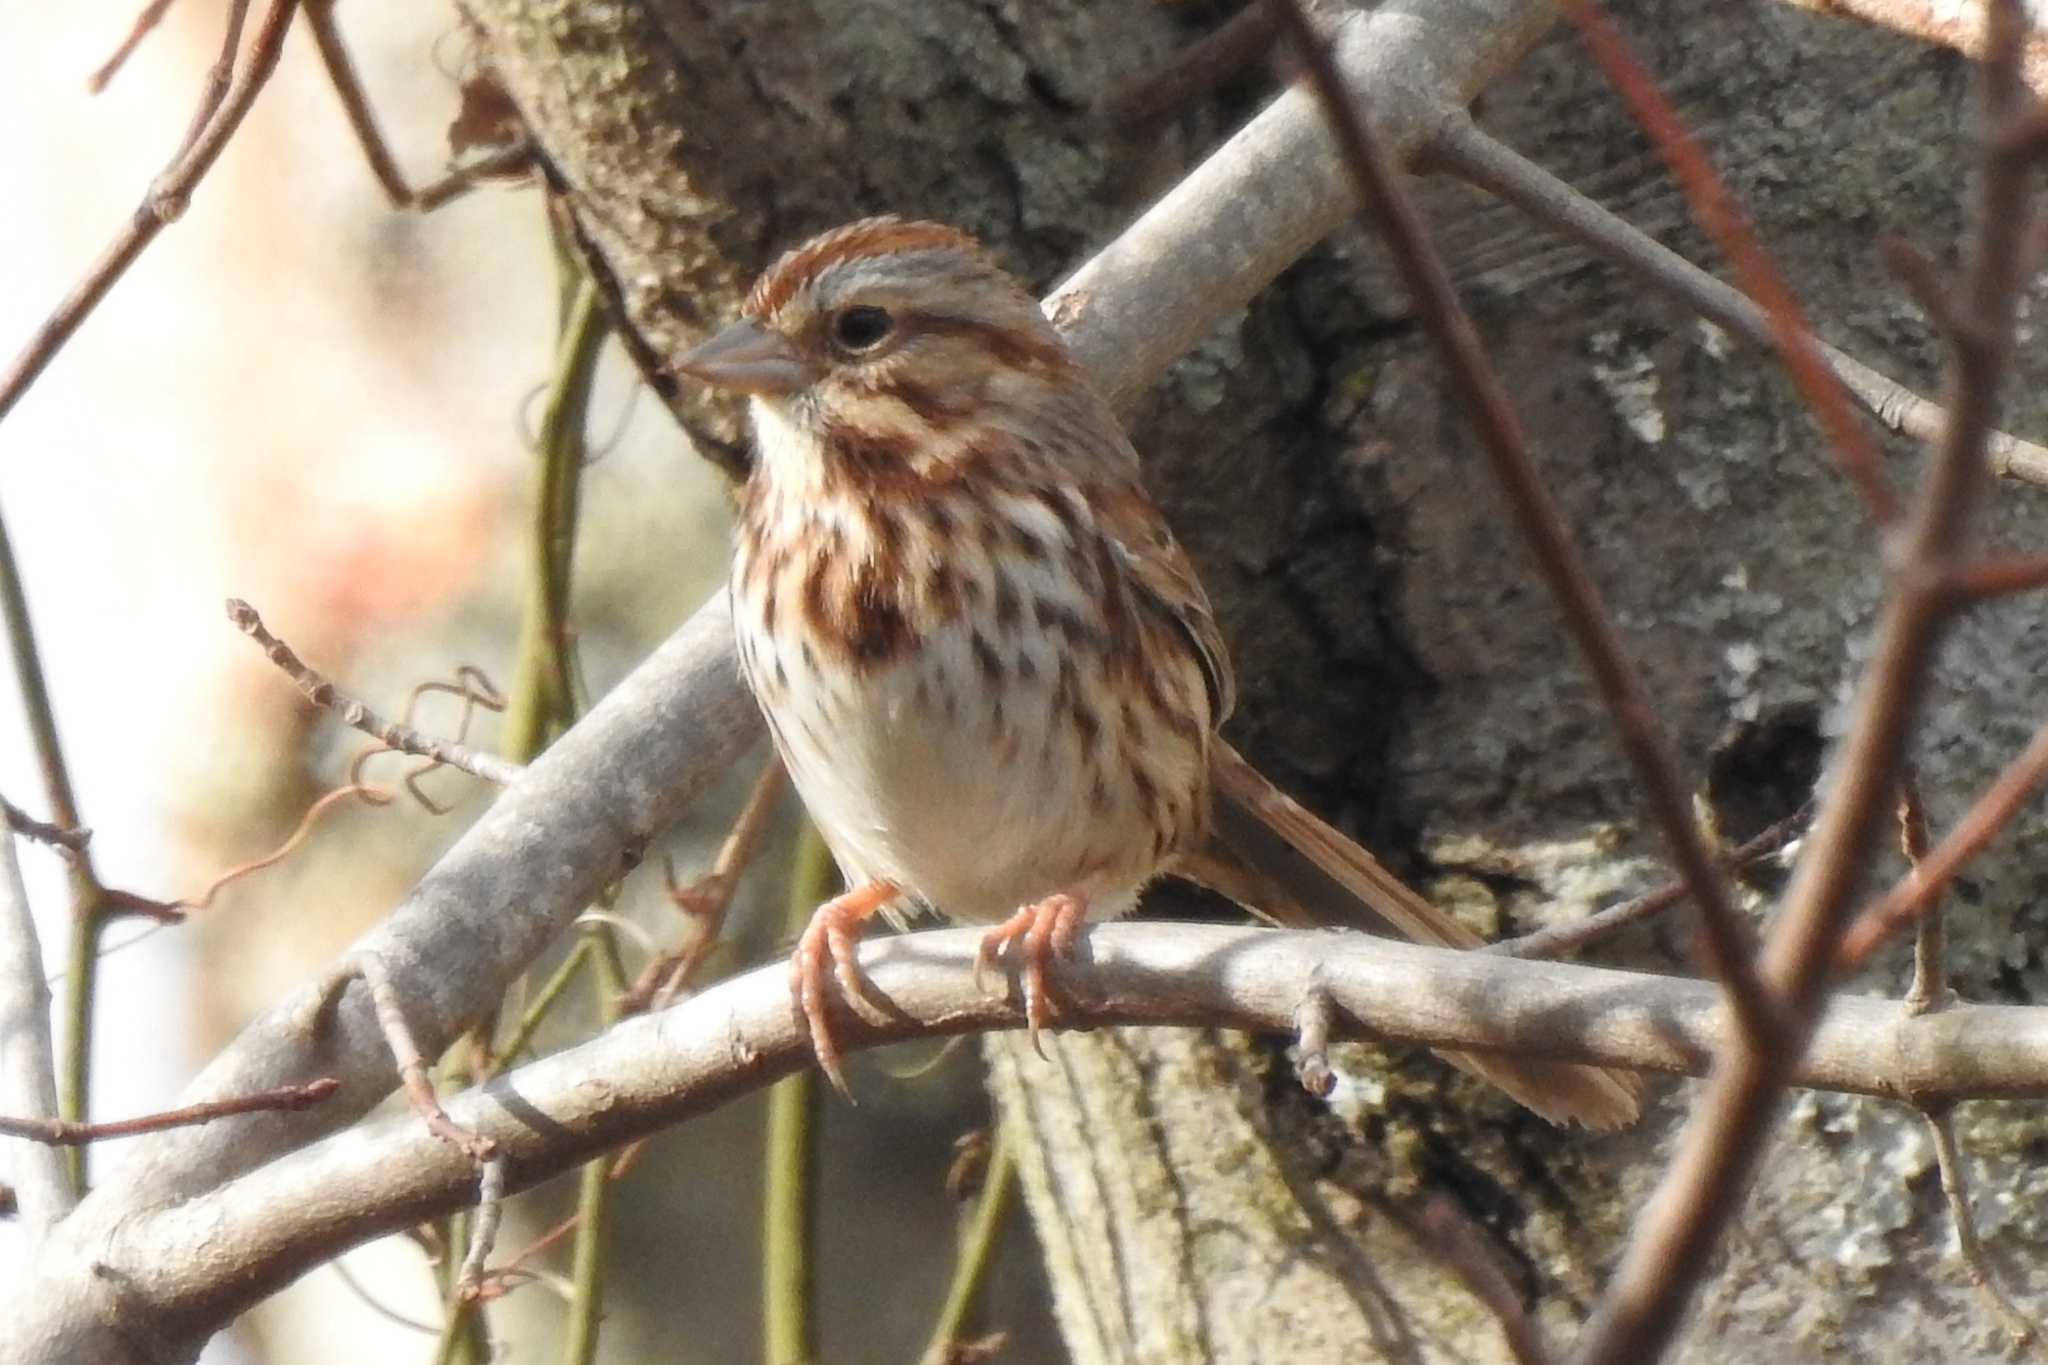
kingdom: Animalia
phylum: Chordata
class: Aves
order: Passeriformes
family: Passerellidae
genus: Melospiza
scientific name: Melospiza melodia
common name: Song sparrow
